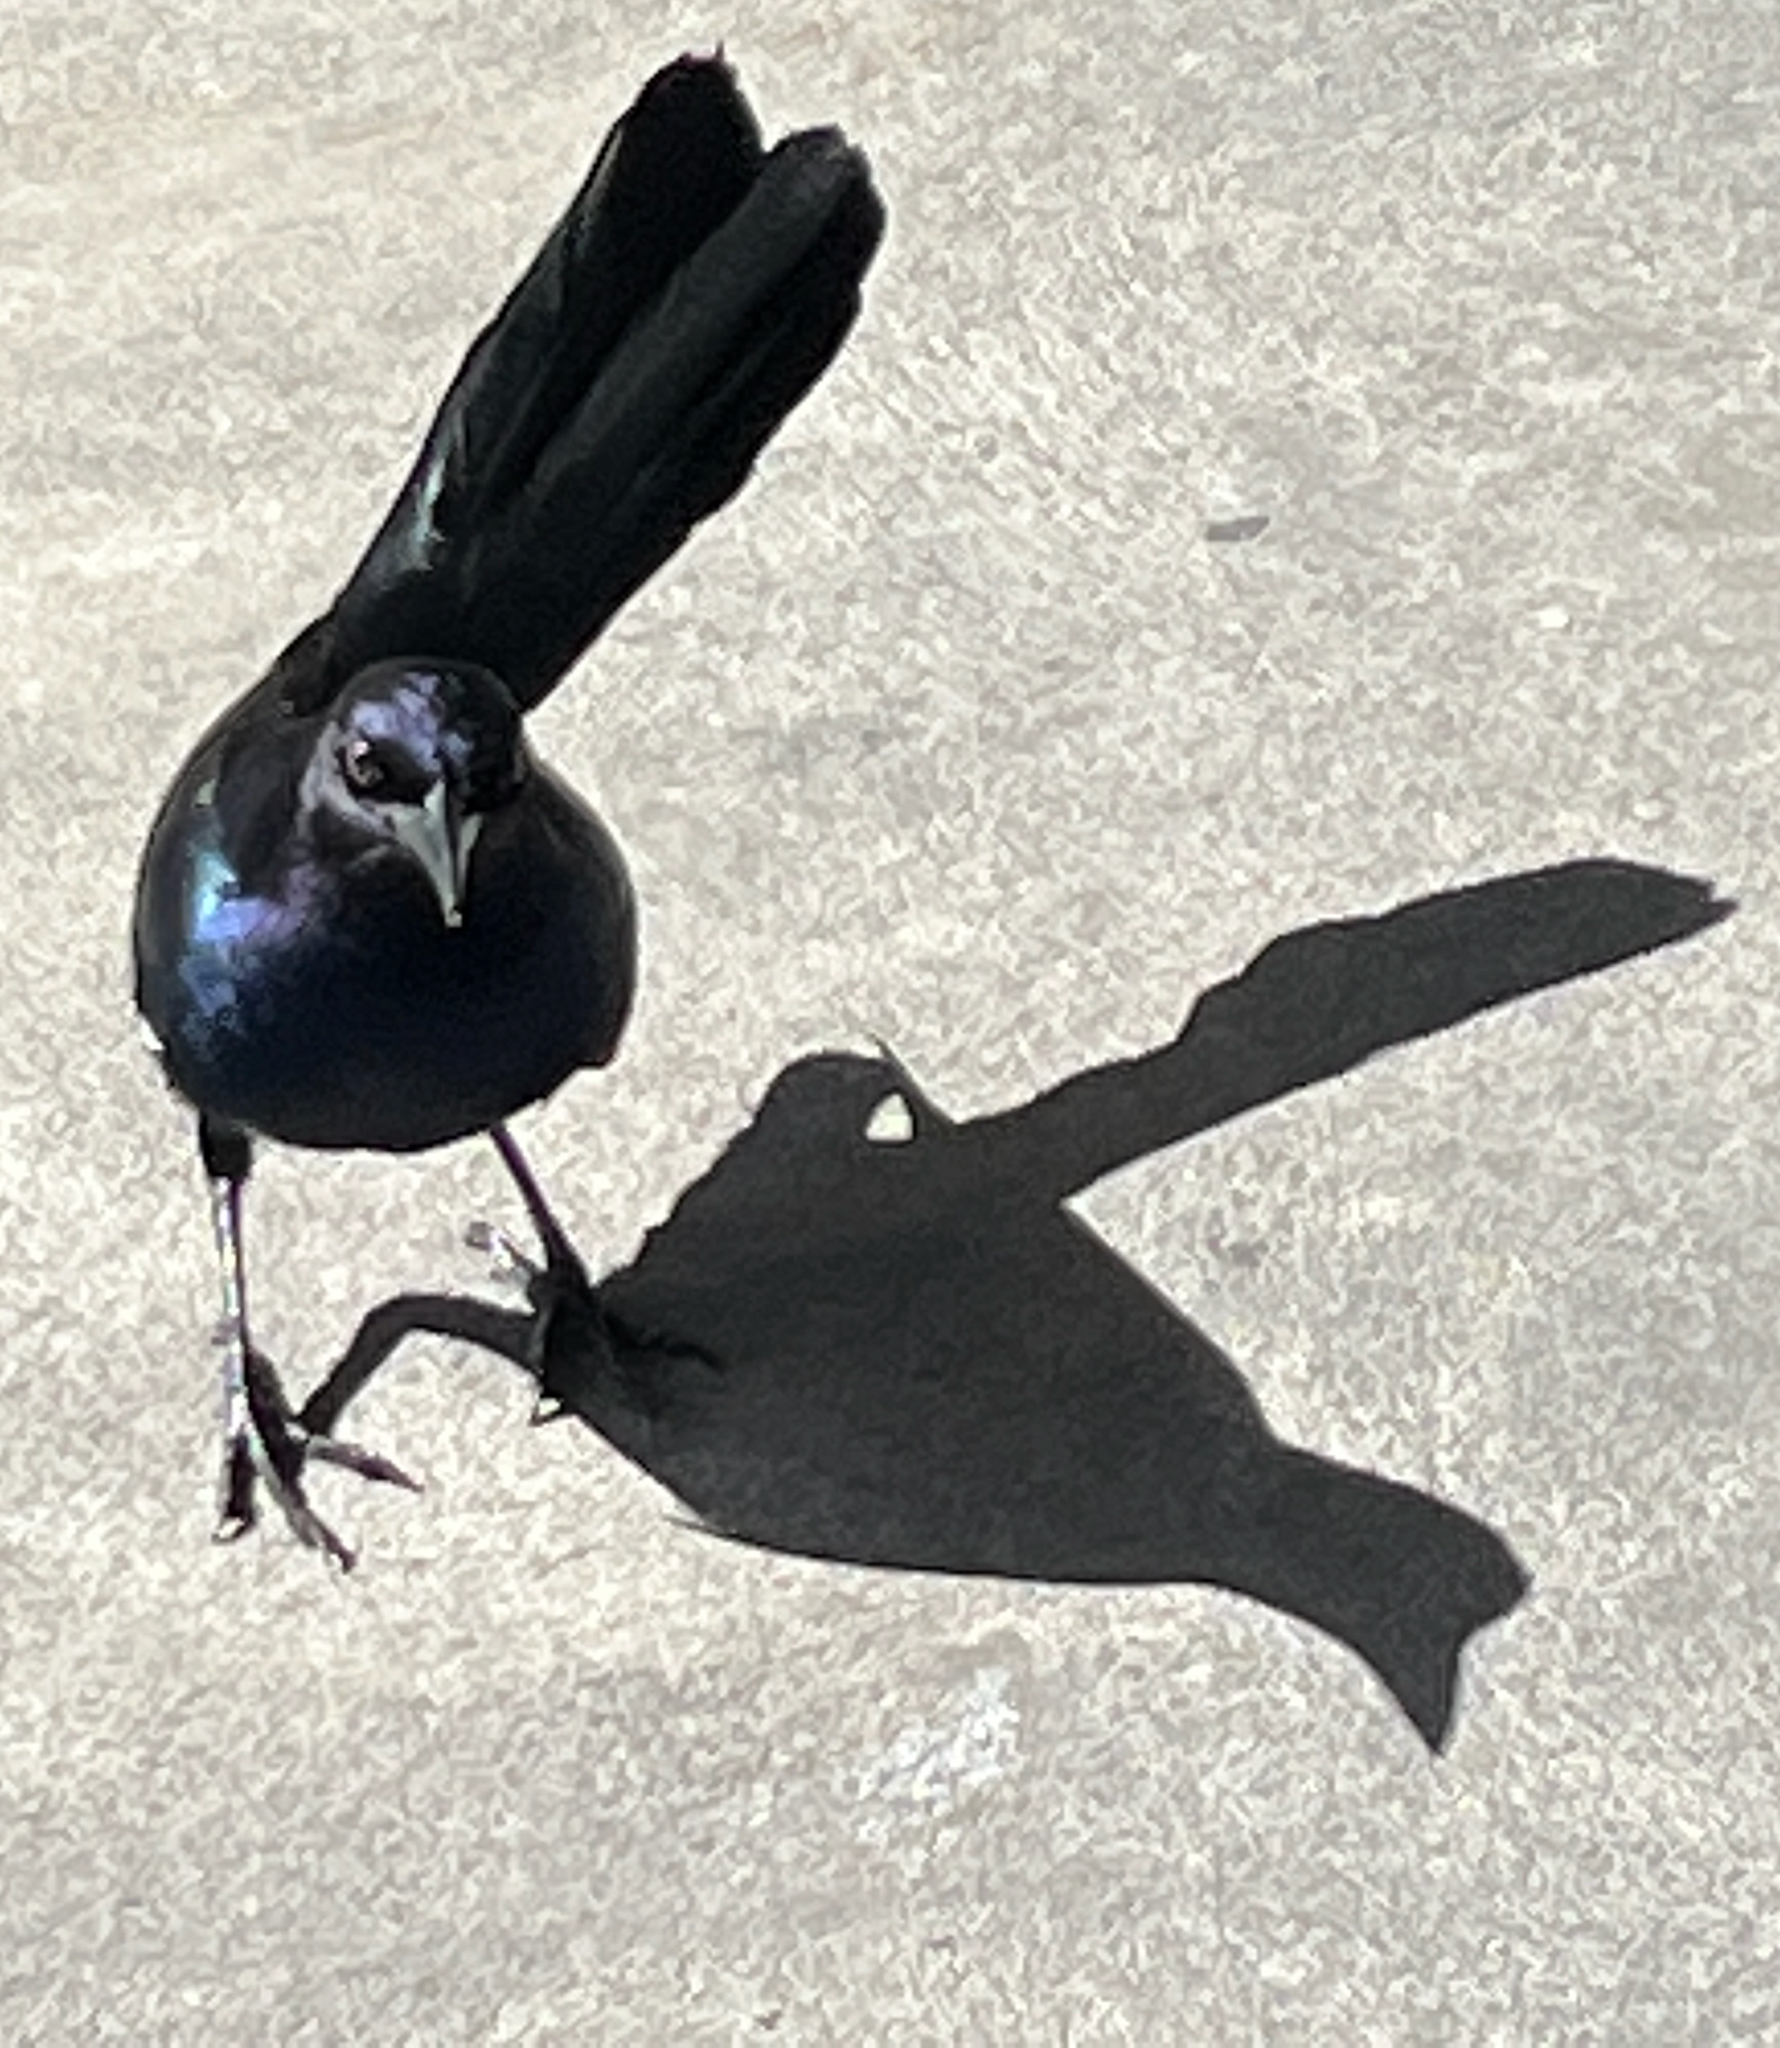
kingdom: Animalia
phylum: Chordata
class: Aves
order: Passeriformes
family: Icteridae
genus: Quiscalus
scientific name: Quiscalus major
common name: Boat-tailed grackle
